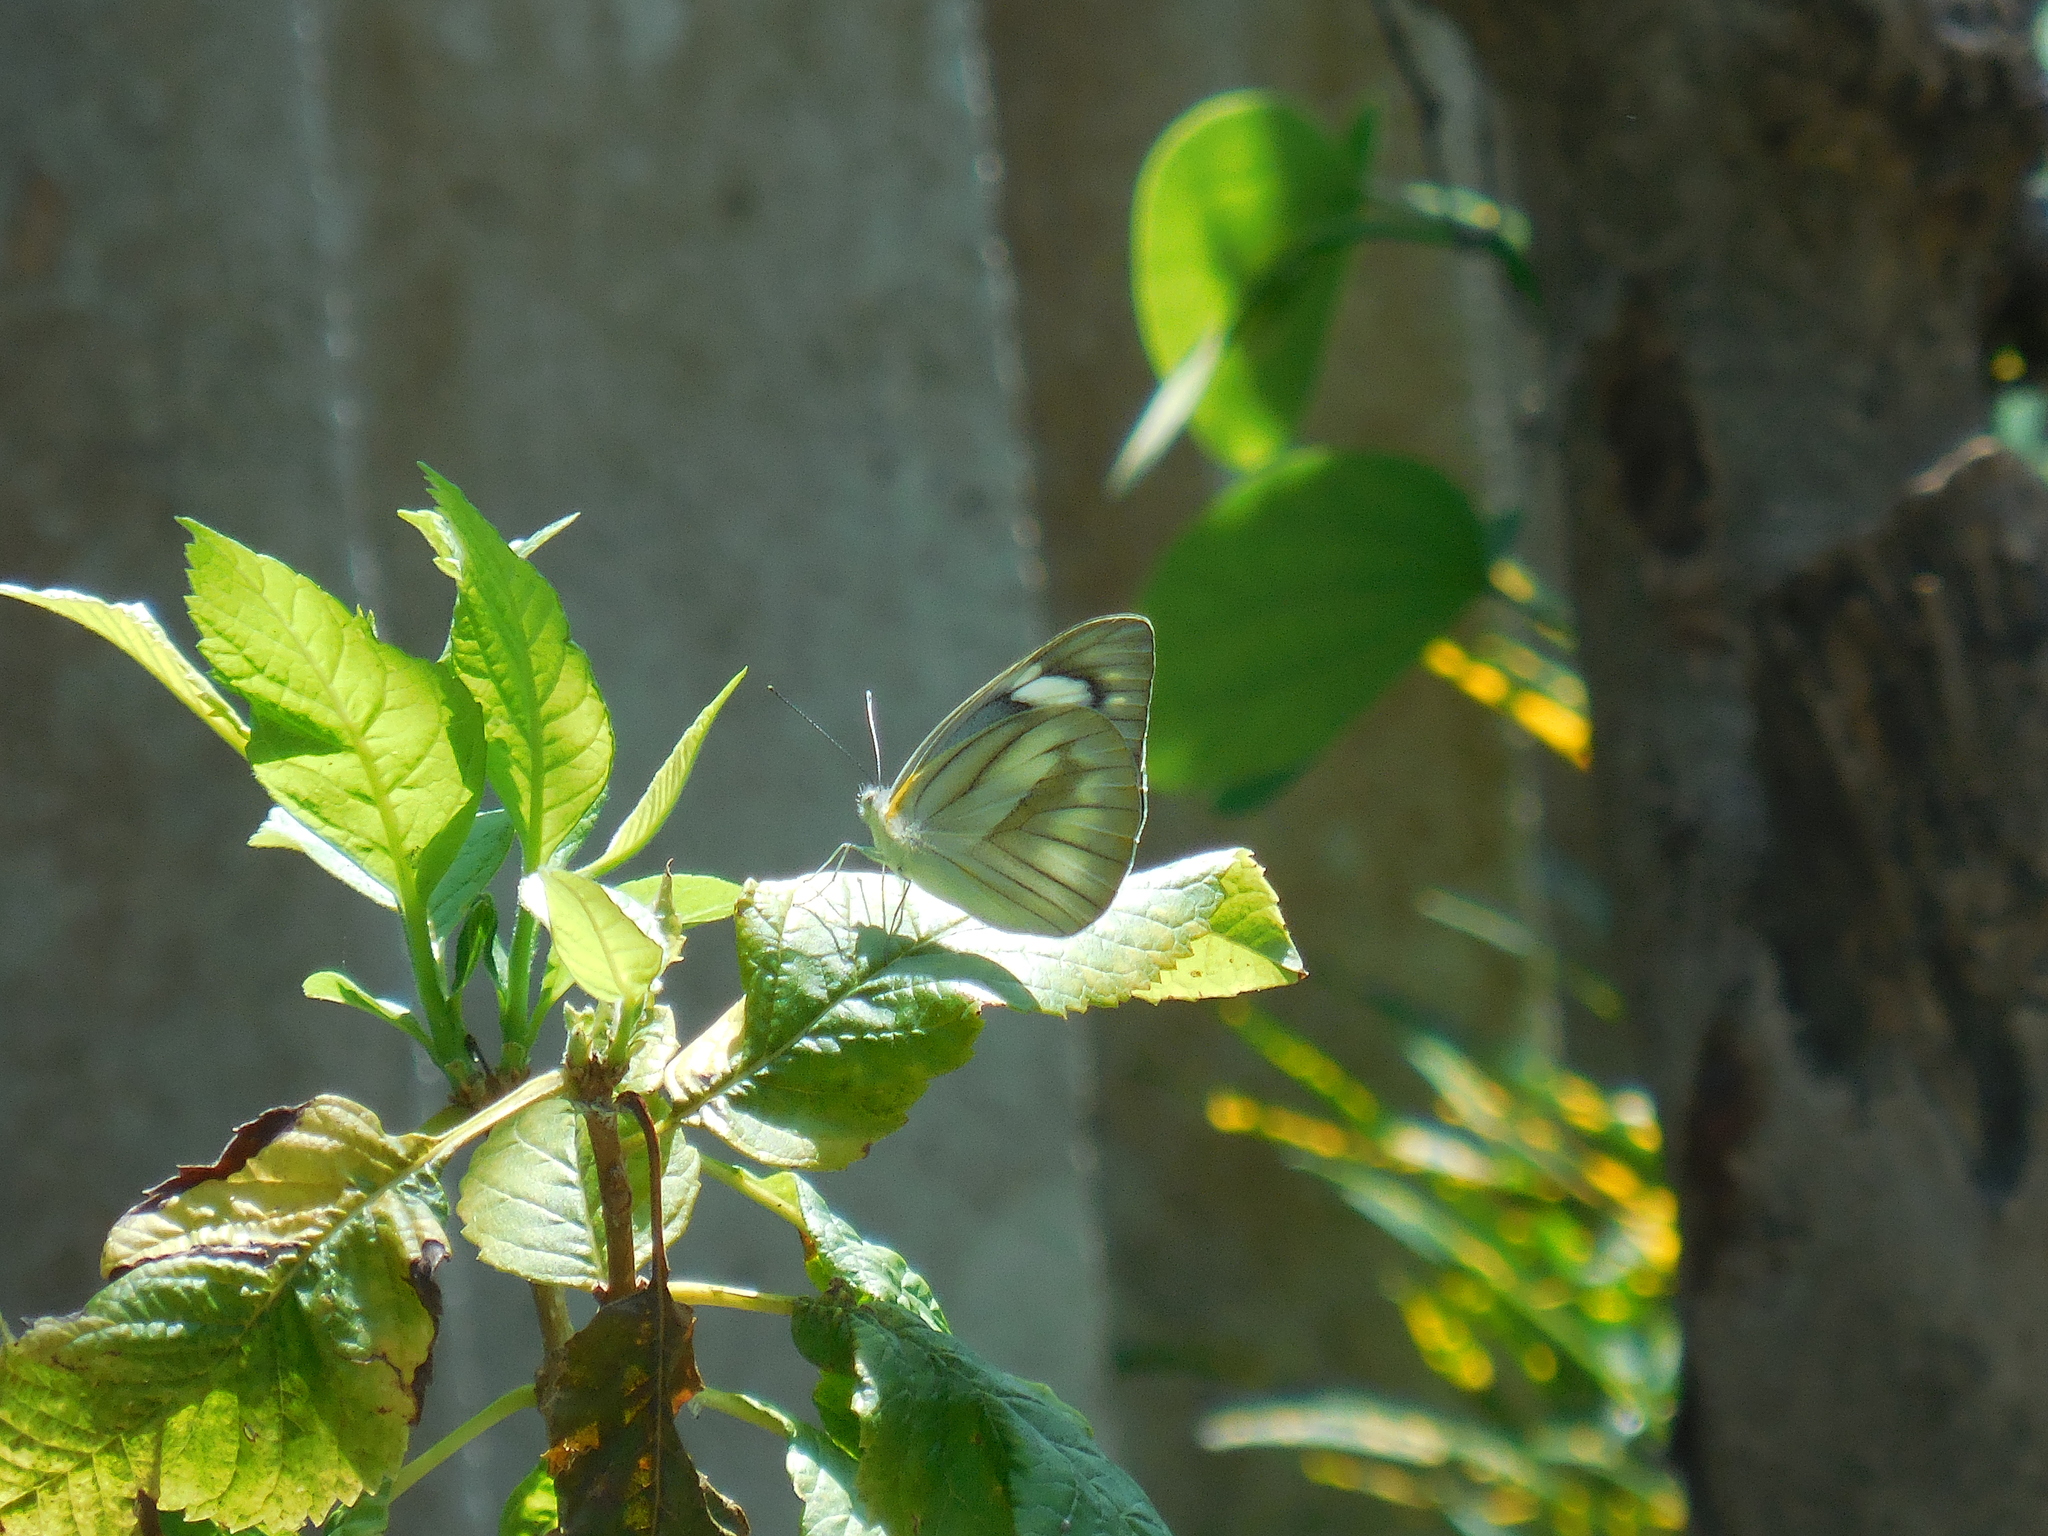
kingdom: Animalia
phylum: Arthropoda
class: Insecta
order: Lepidoptera
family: Pieridae
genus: Appias
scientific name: Appias libythea
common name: Striped albatross
